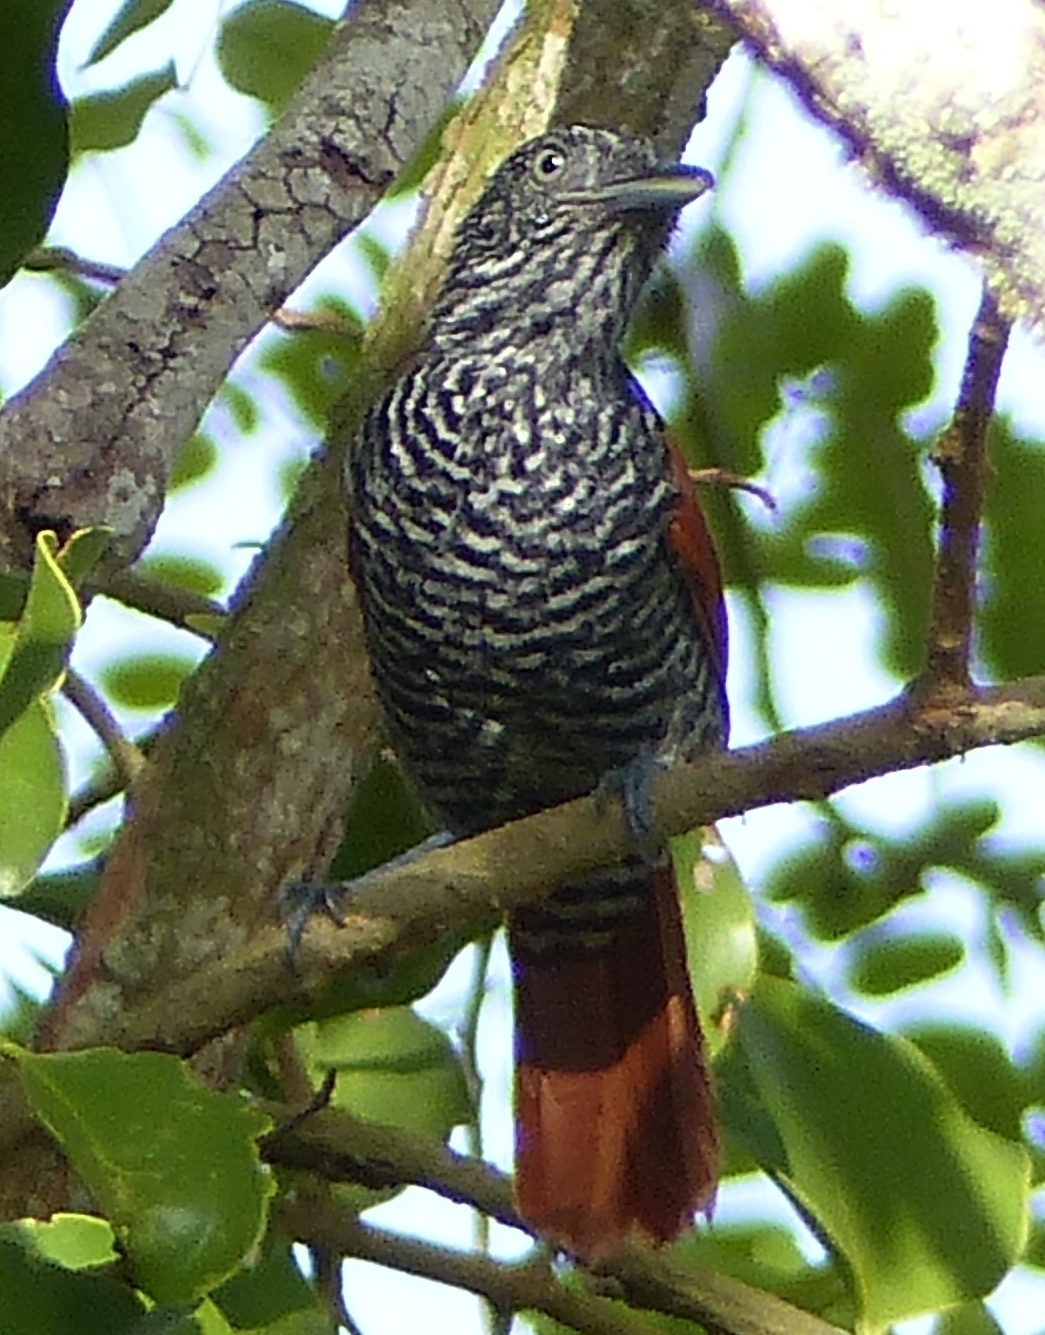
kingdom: Animalia
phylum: Chordata
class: Aves
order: Passeriformes
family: Thamnophilidae
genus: Thamnophilus
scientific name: Thamnophilus palliatus
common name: Chestnut-backed antshrike
